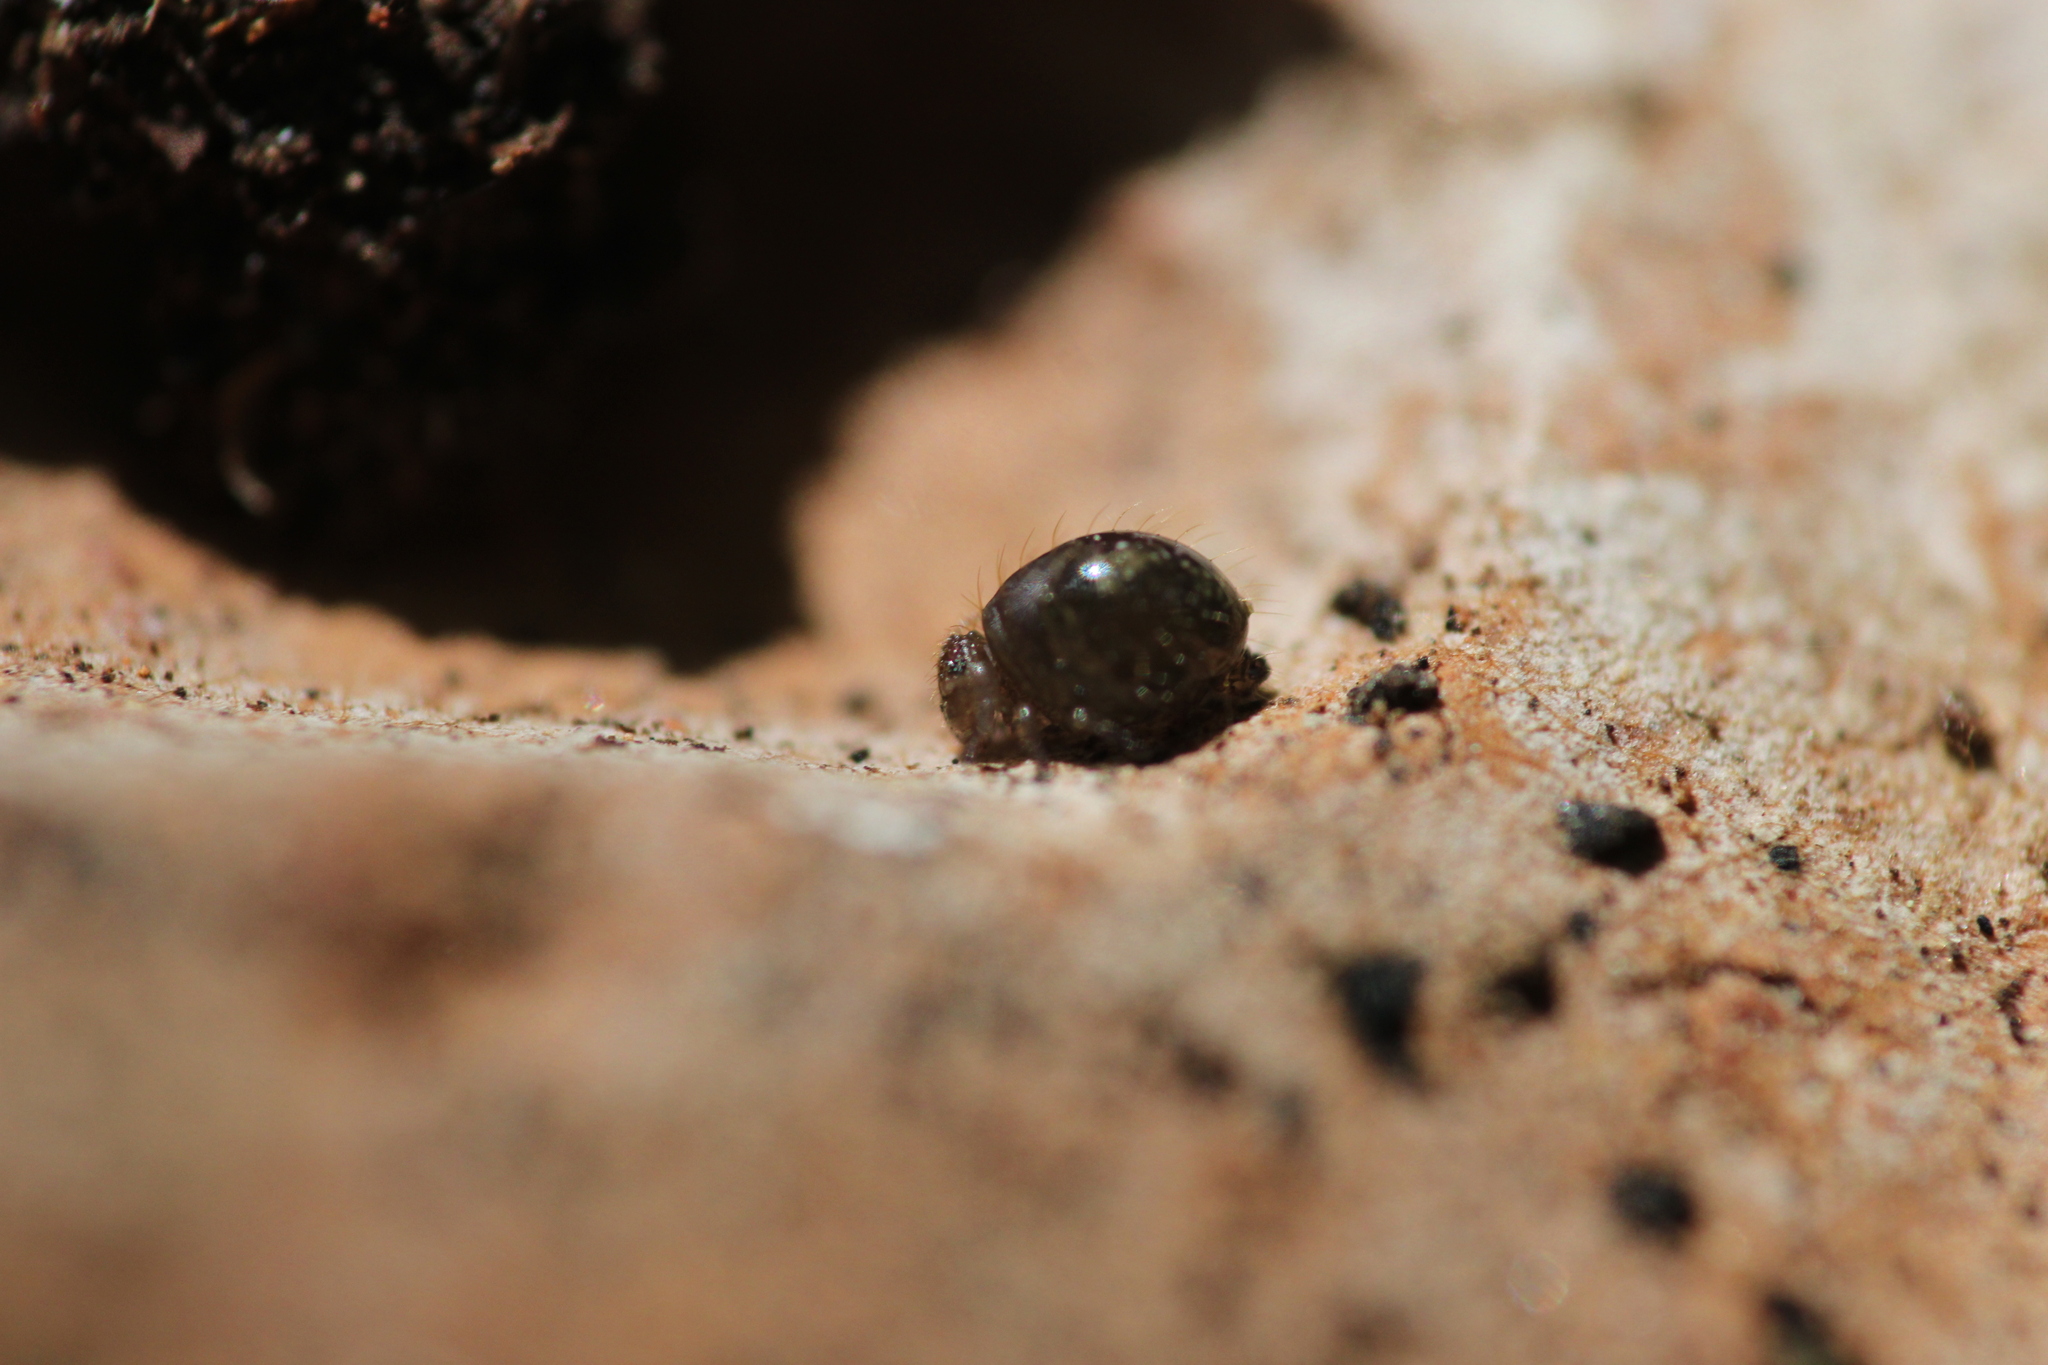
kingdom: Animalia
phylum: Arthropoda
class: Collembola
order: Symphypleona
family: Sminthuridae
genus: Allacma
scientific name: Allacma fusca
